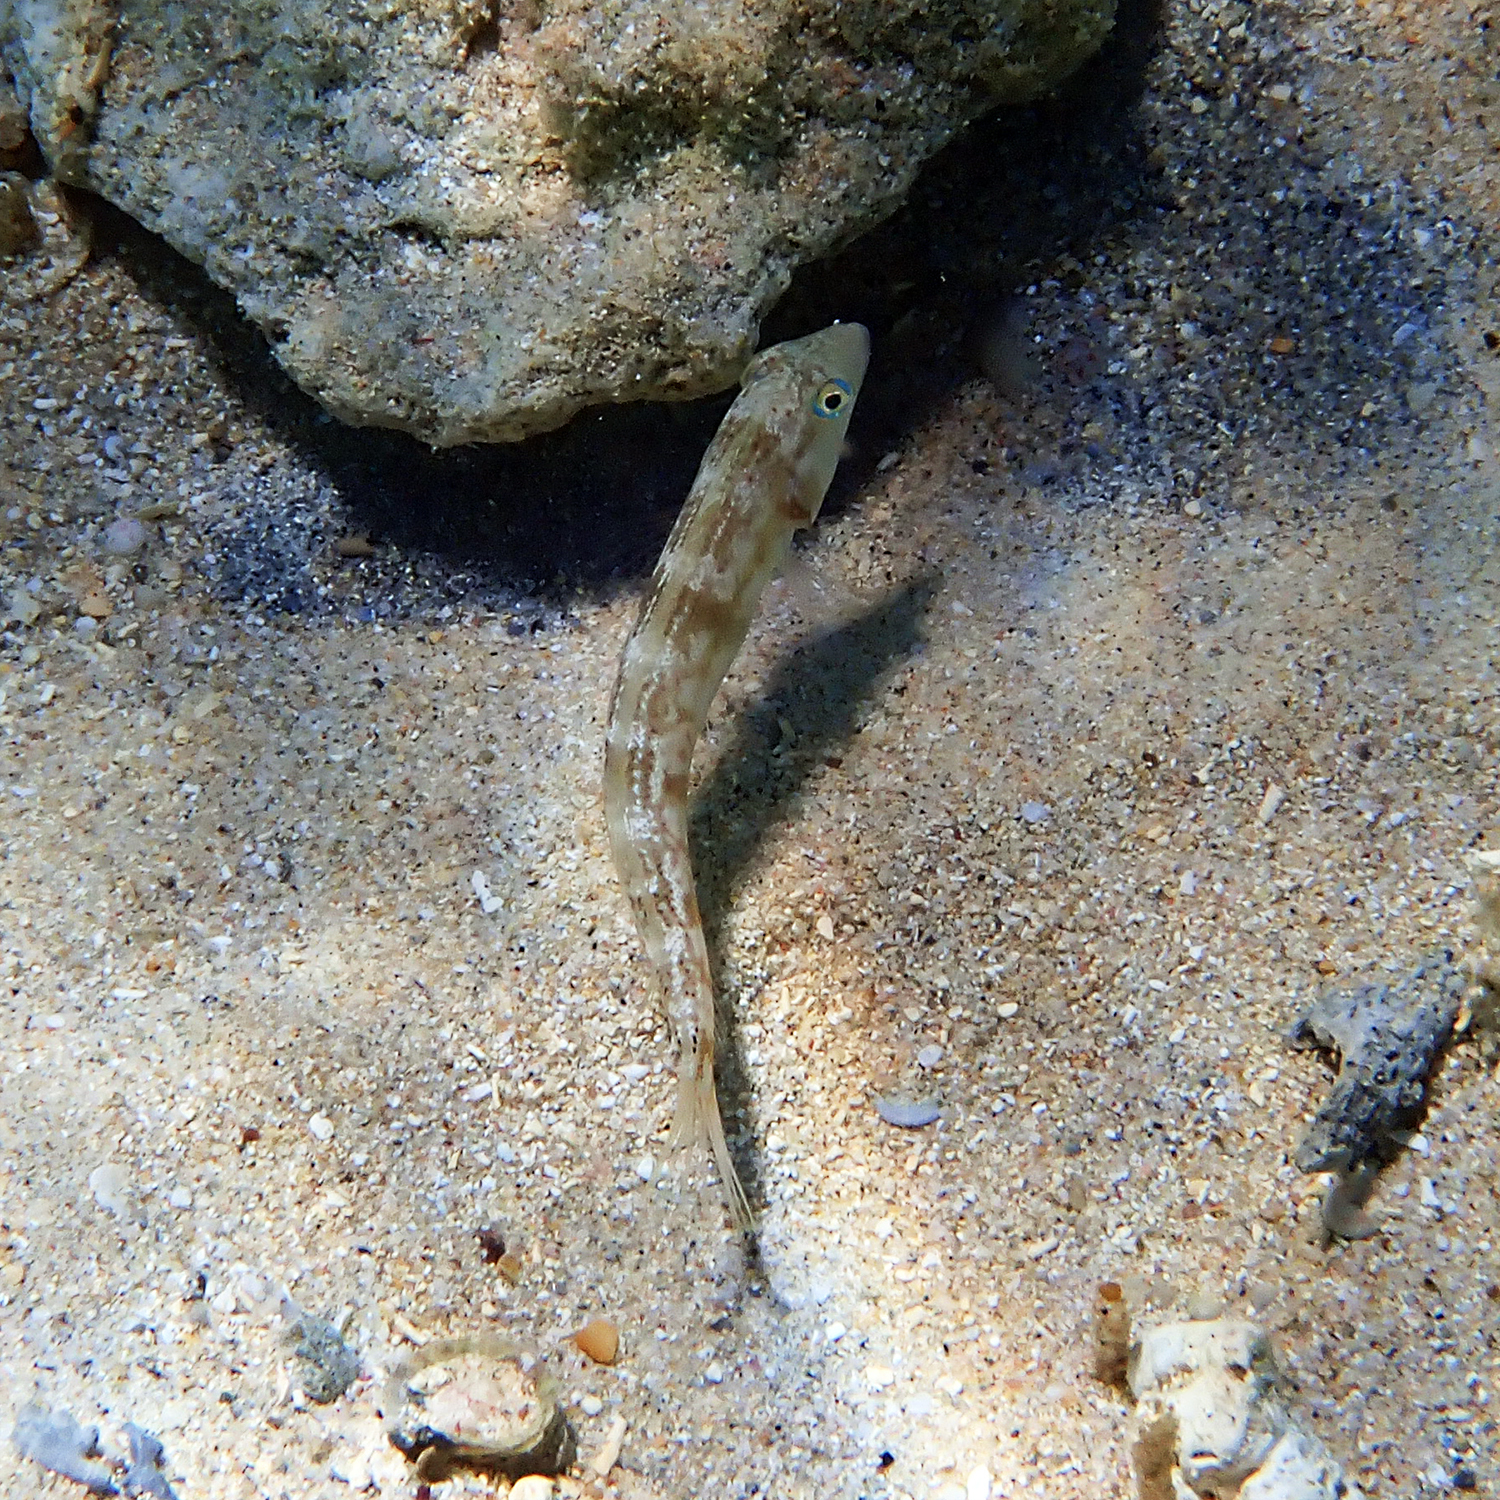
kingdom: Animalia
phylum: Chordata
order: Perciformes
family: Labridae
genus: Cymolutes
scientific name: Cymolutes praetextatus
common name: Knife razorfish
